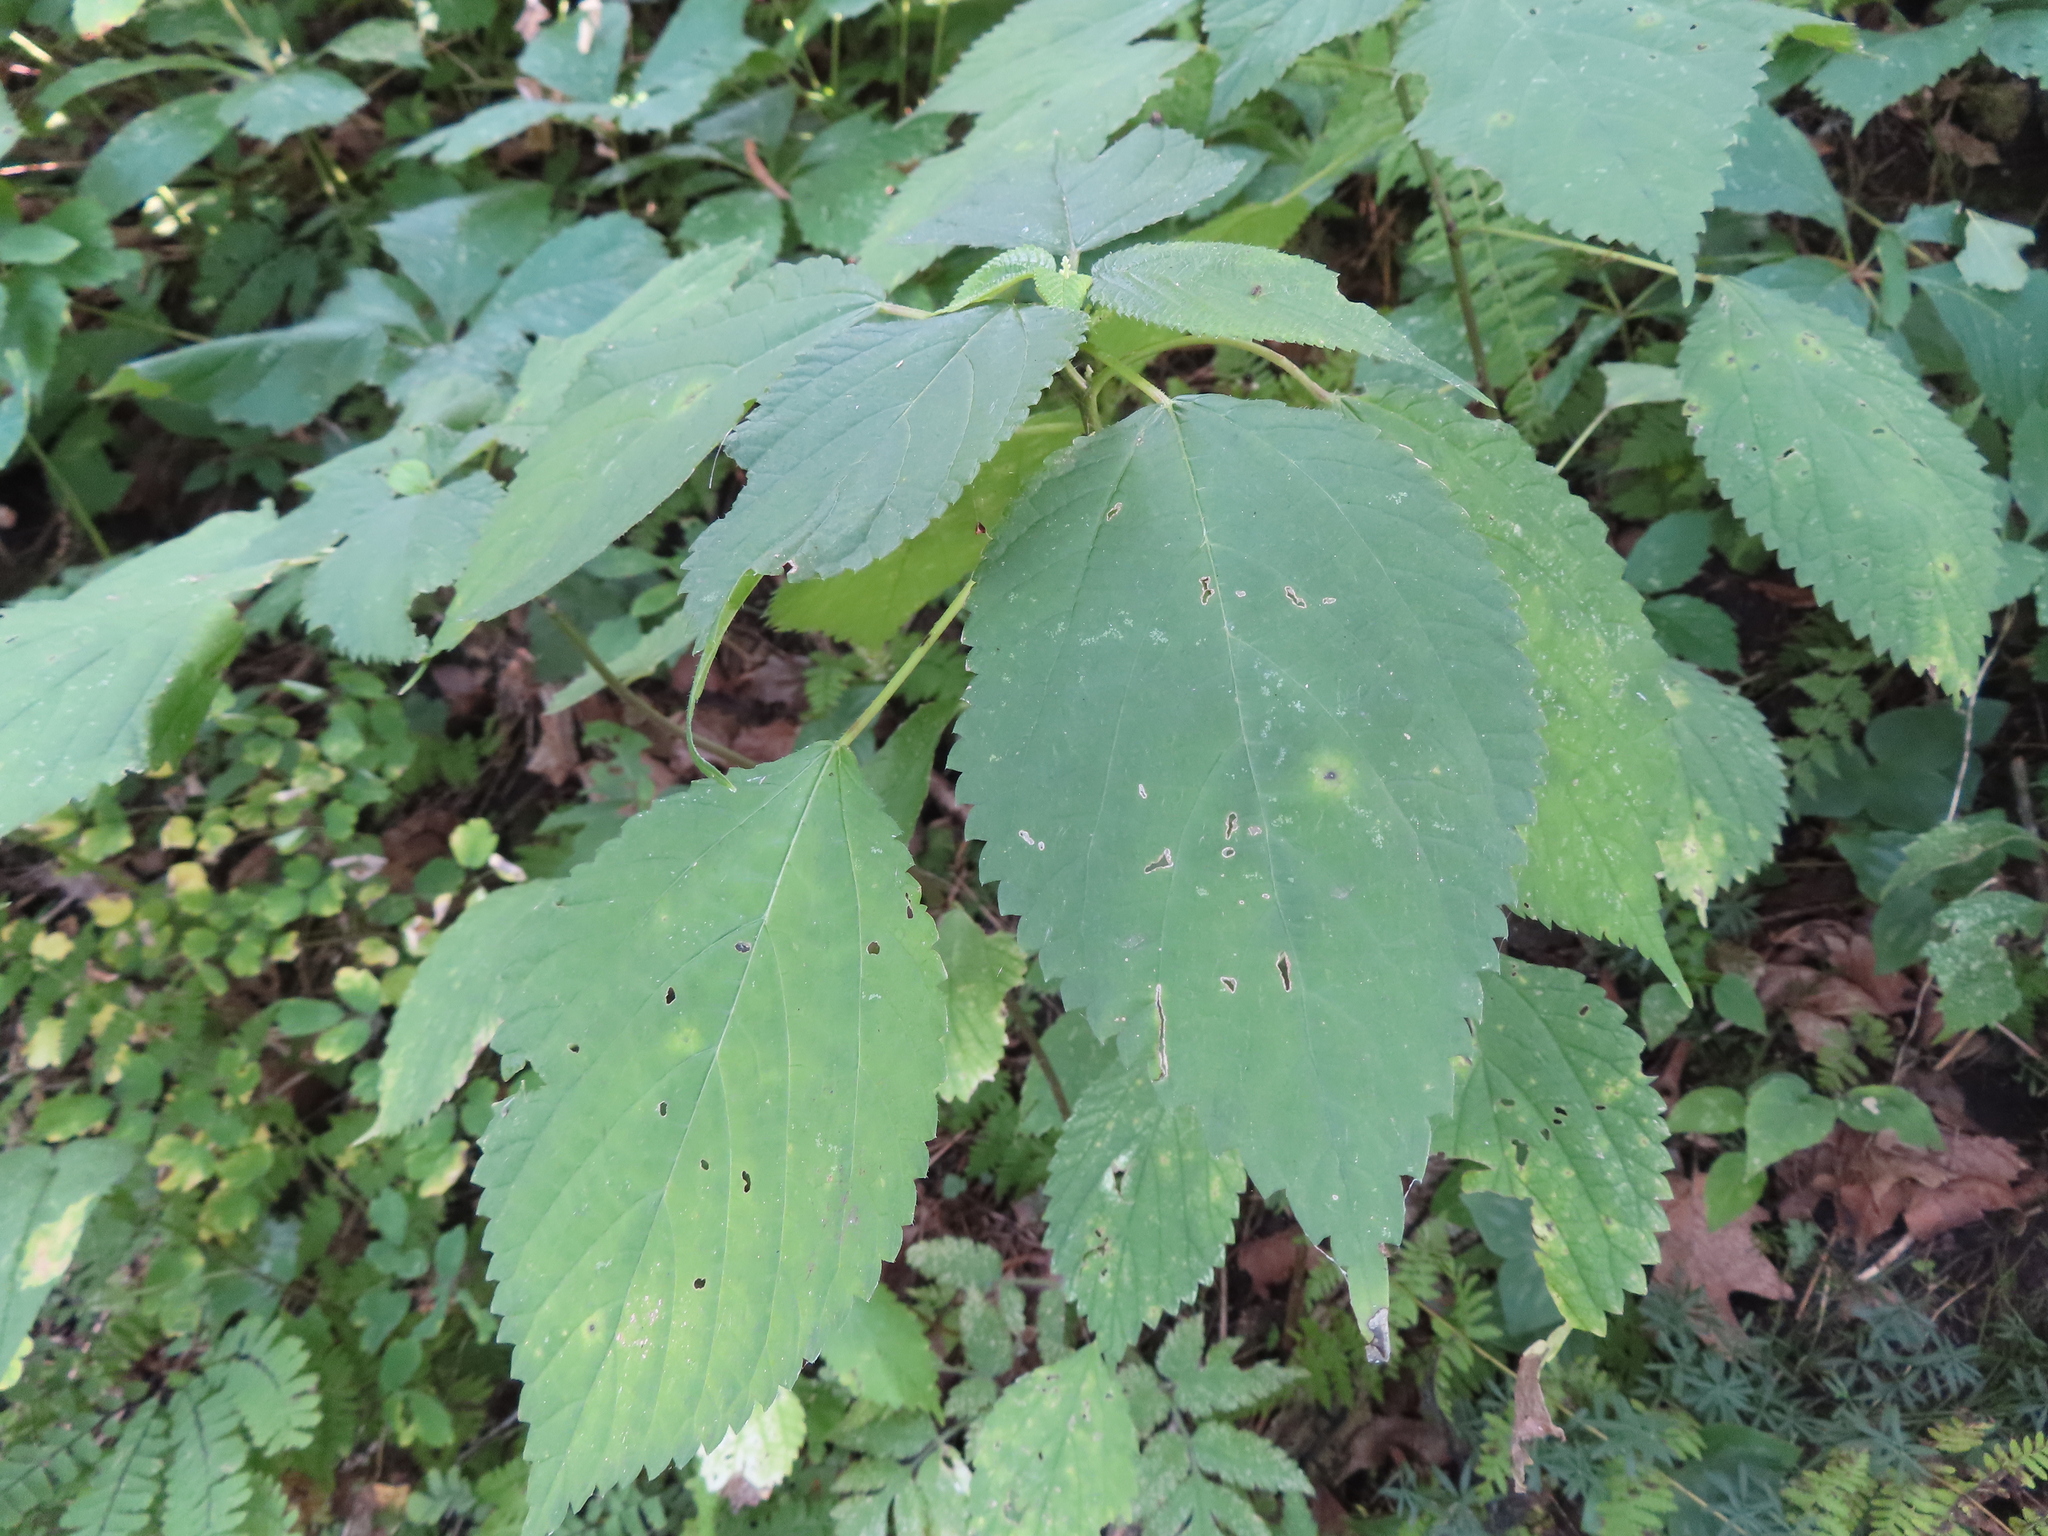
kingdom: Plantae
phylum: Tracheophyta
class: Magnoliopsida
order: Rosales
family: Urticaceae
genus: Laportea
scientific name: Laportea canadensis
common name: Canada nettle
